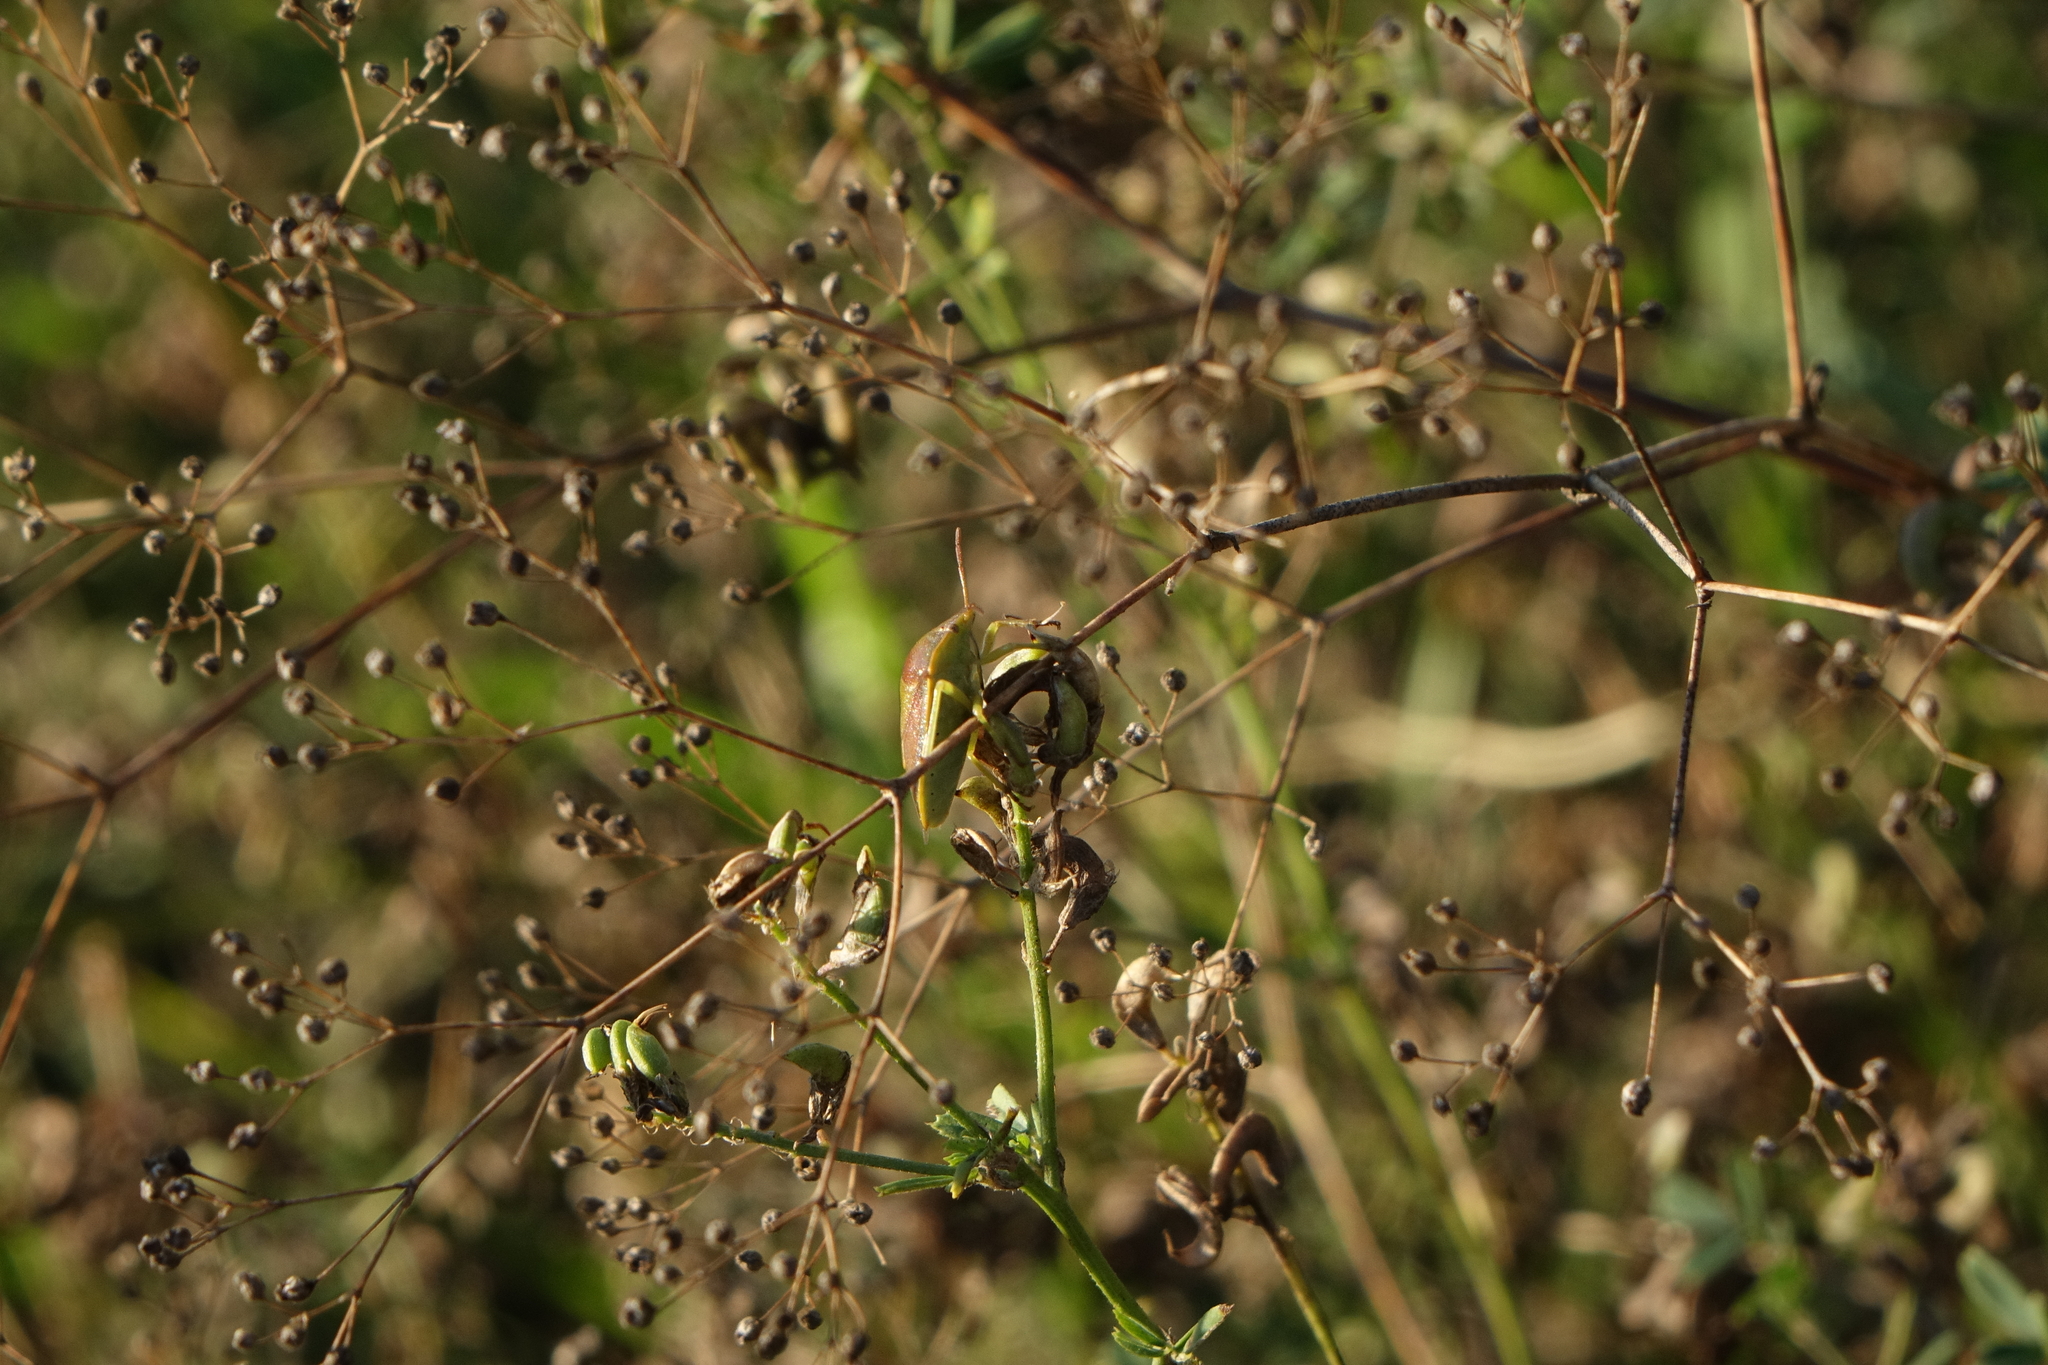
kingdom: Plantae
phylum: Tracheophyta
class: Magnoliopsida
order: Caryophyllales
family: Caryophyllaceae
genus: Gypsophila
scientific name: Gypsophila paniculata
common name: Baby's-breath
